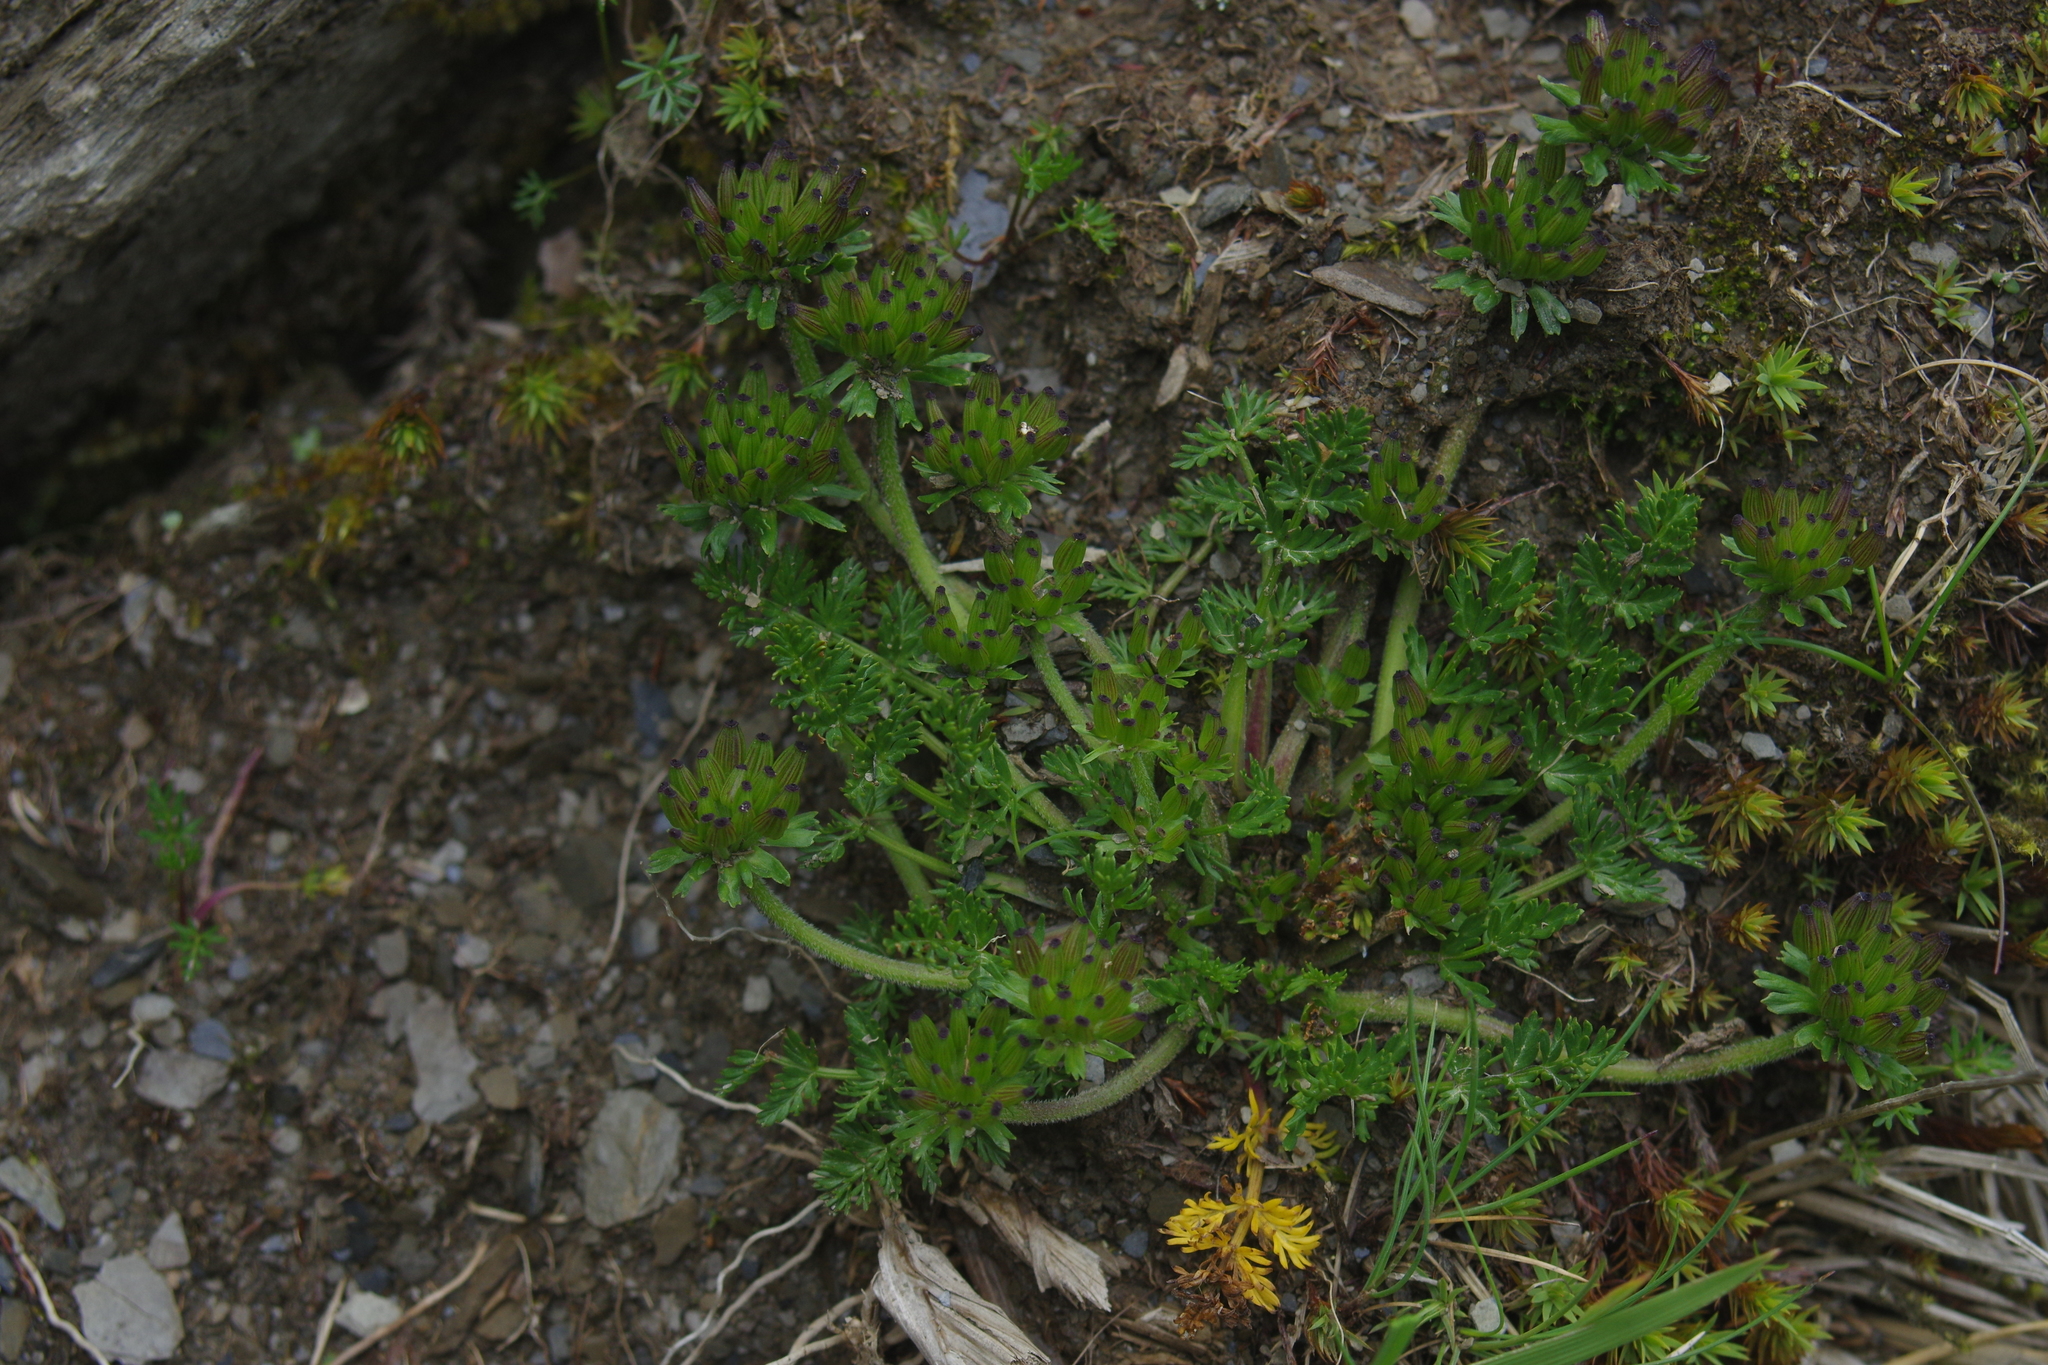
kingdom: Plantae
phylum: Tracheophyta
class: Magnoliopsida
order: Apiales
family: Apiaceae
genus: Chaerophyllum
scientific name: Chaerophyllum taiwanianum
